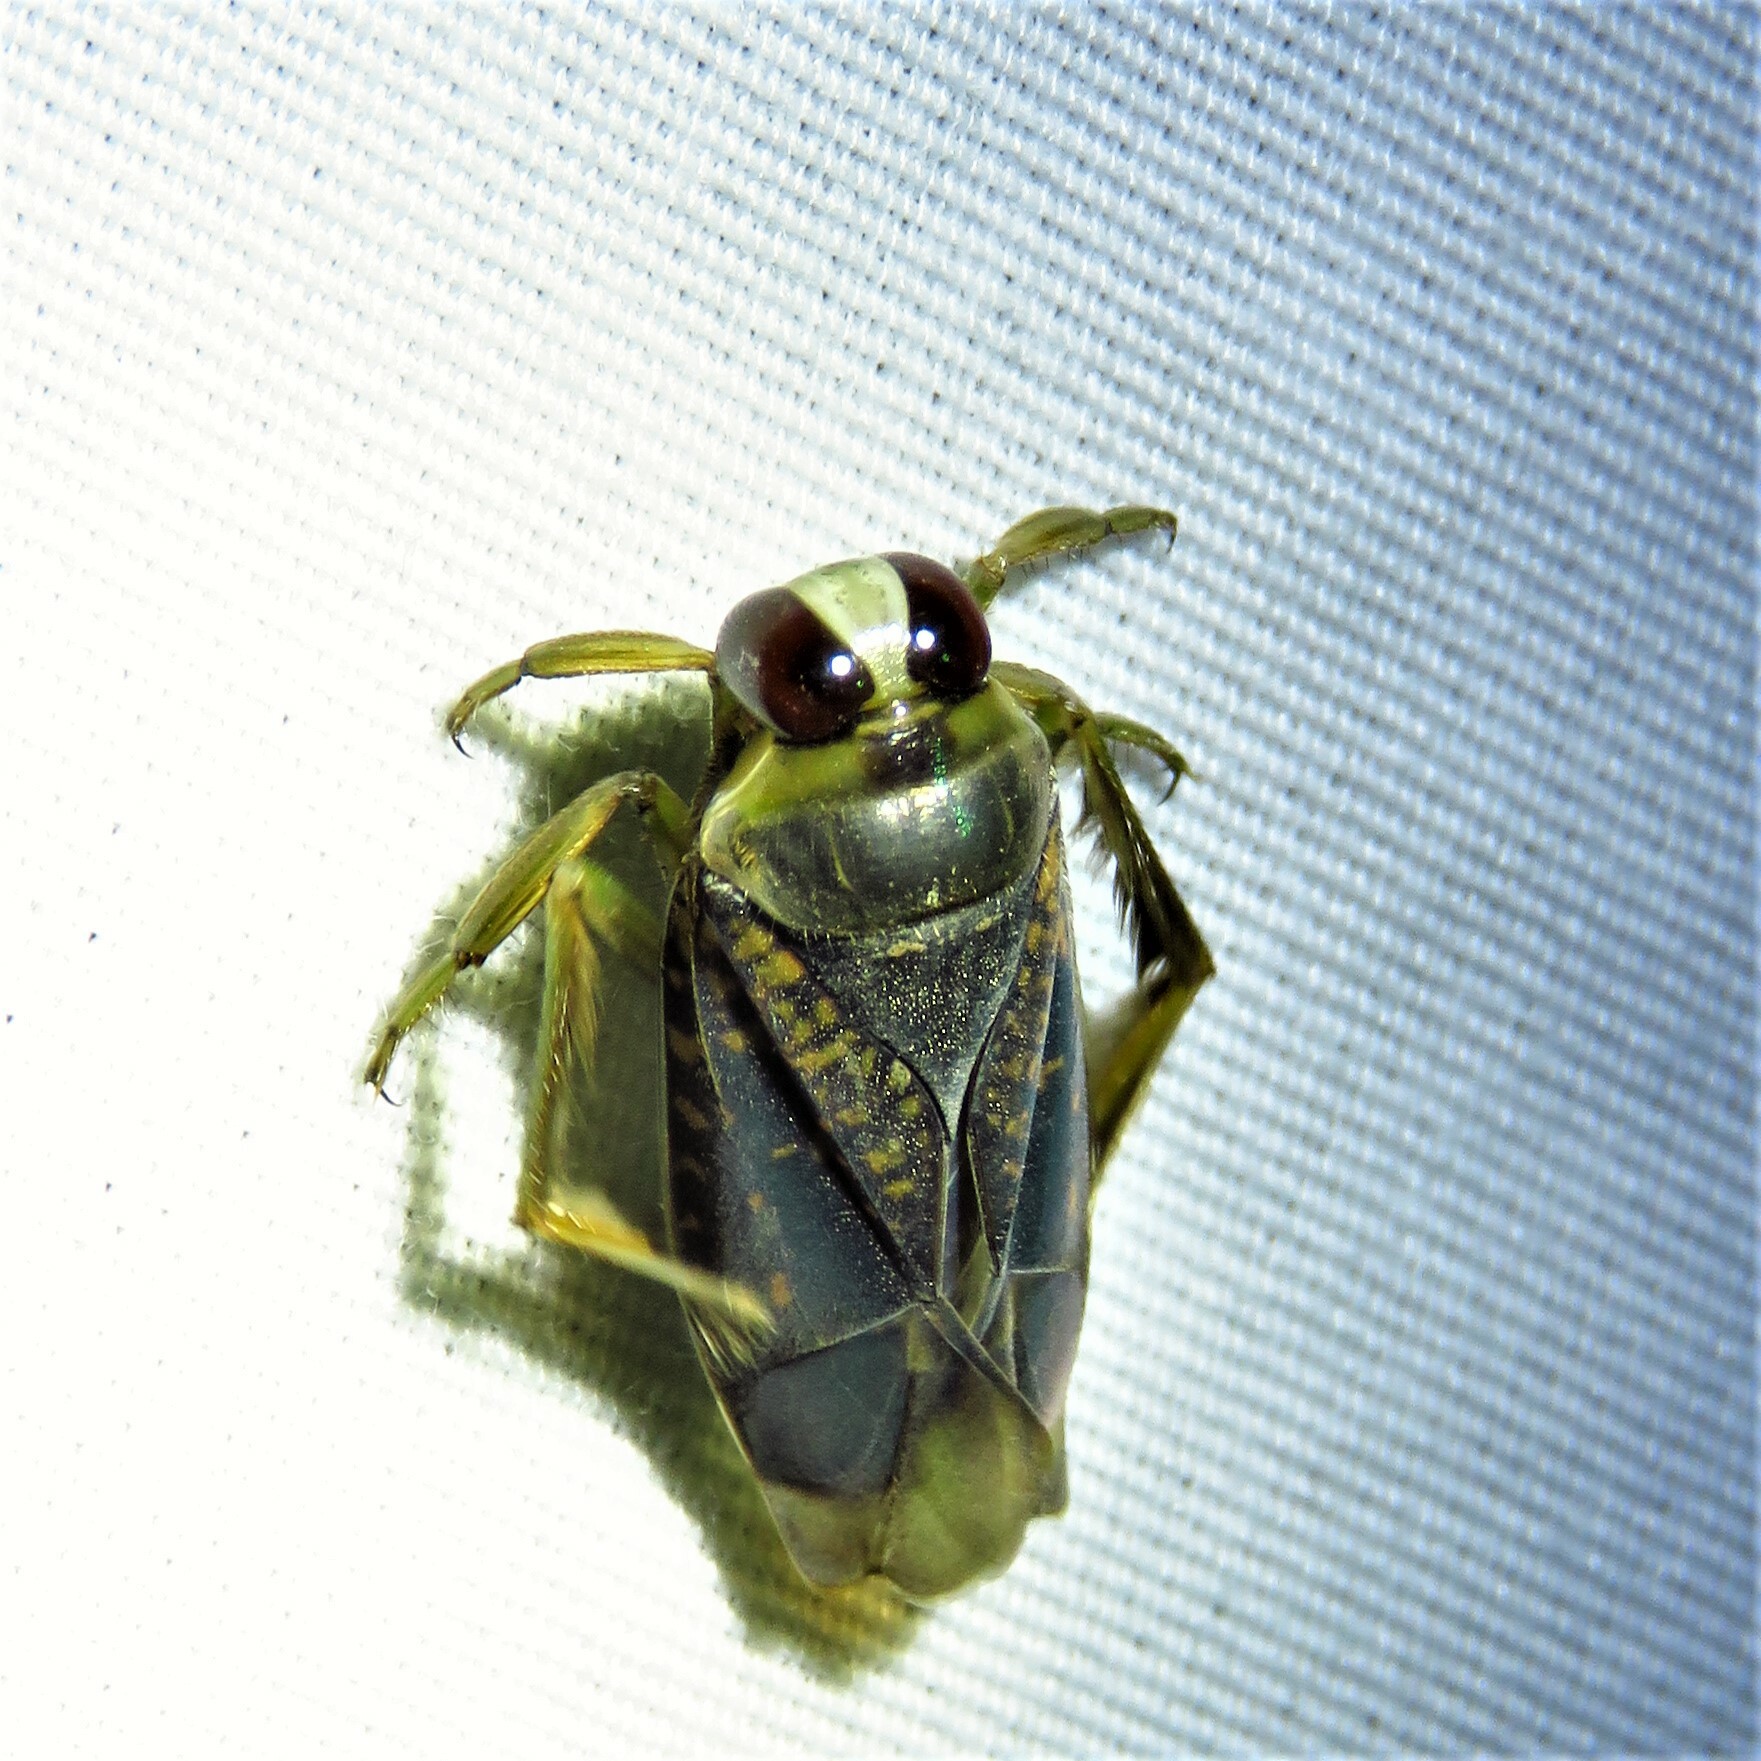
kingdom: Animalia
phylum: Arthropoda
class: Insecta
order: Hemiptera
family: Notonectidae
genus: Notonecta
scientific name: Notonecta irrorata
